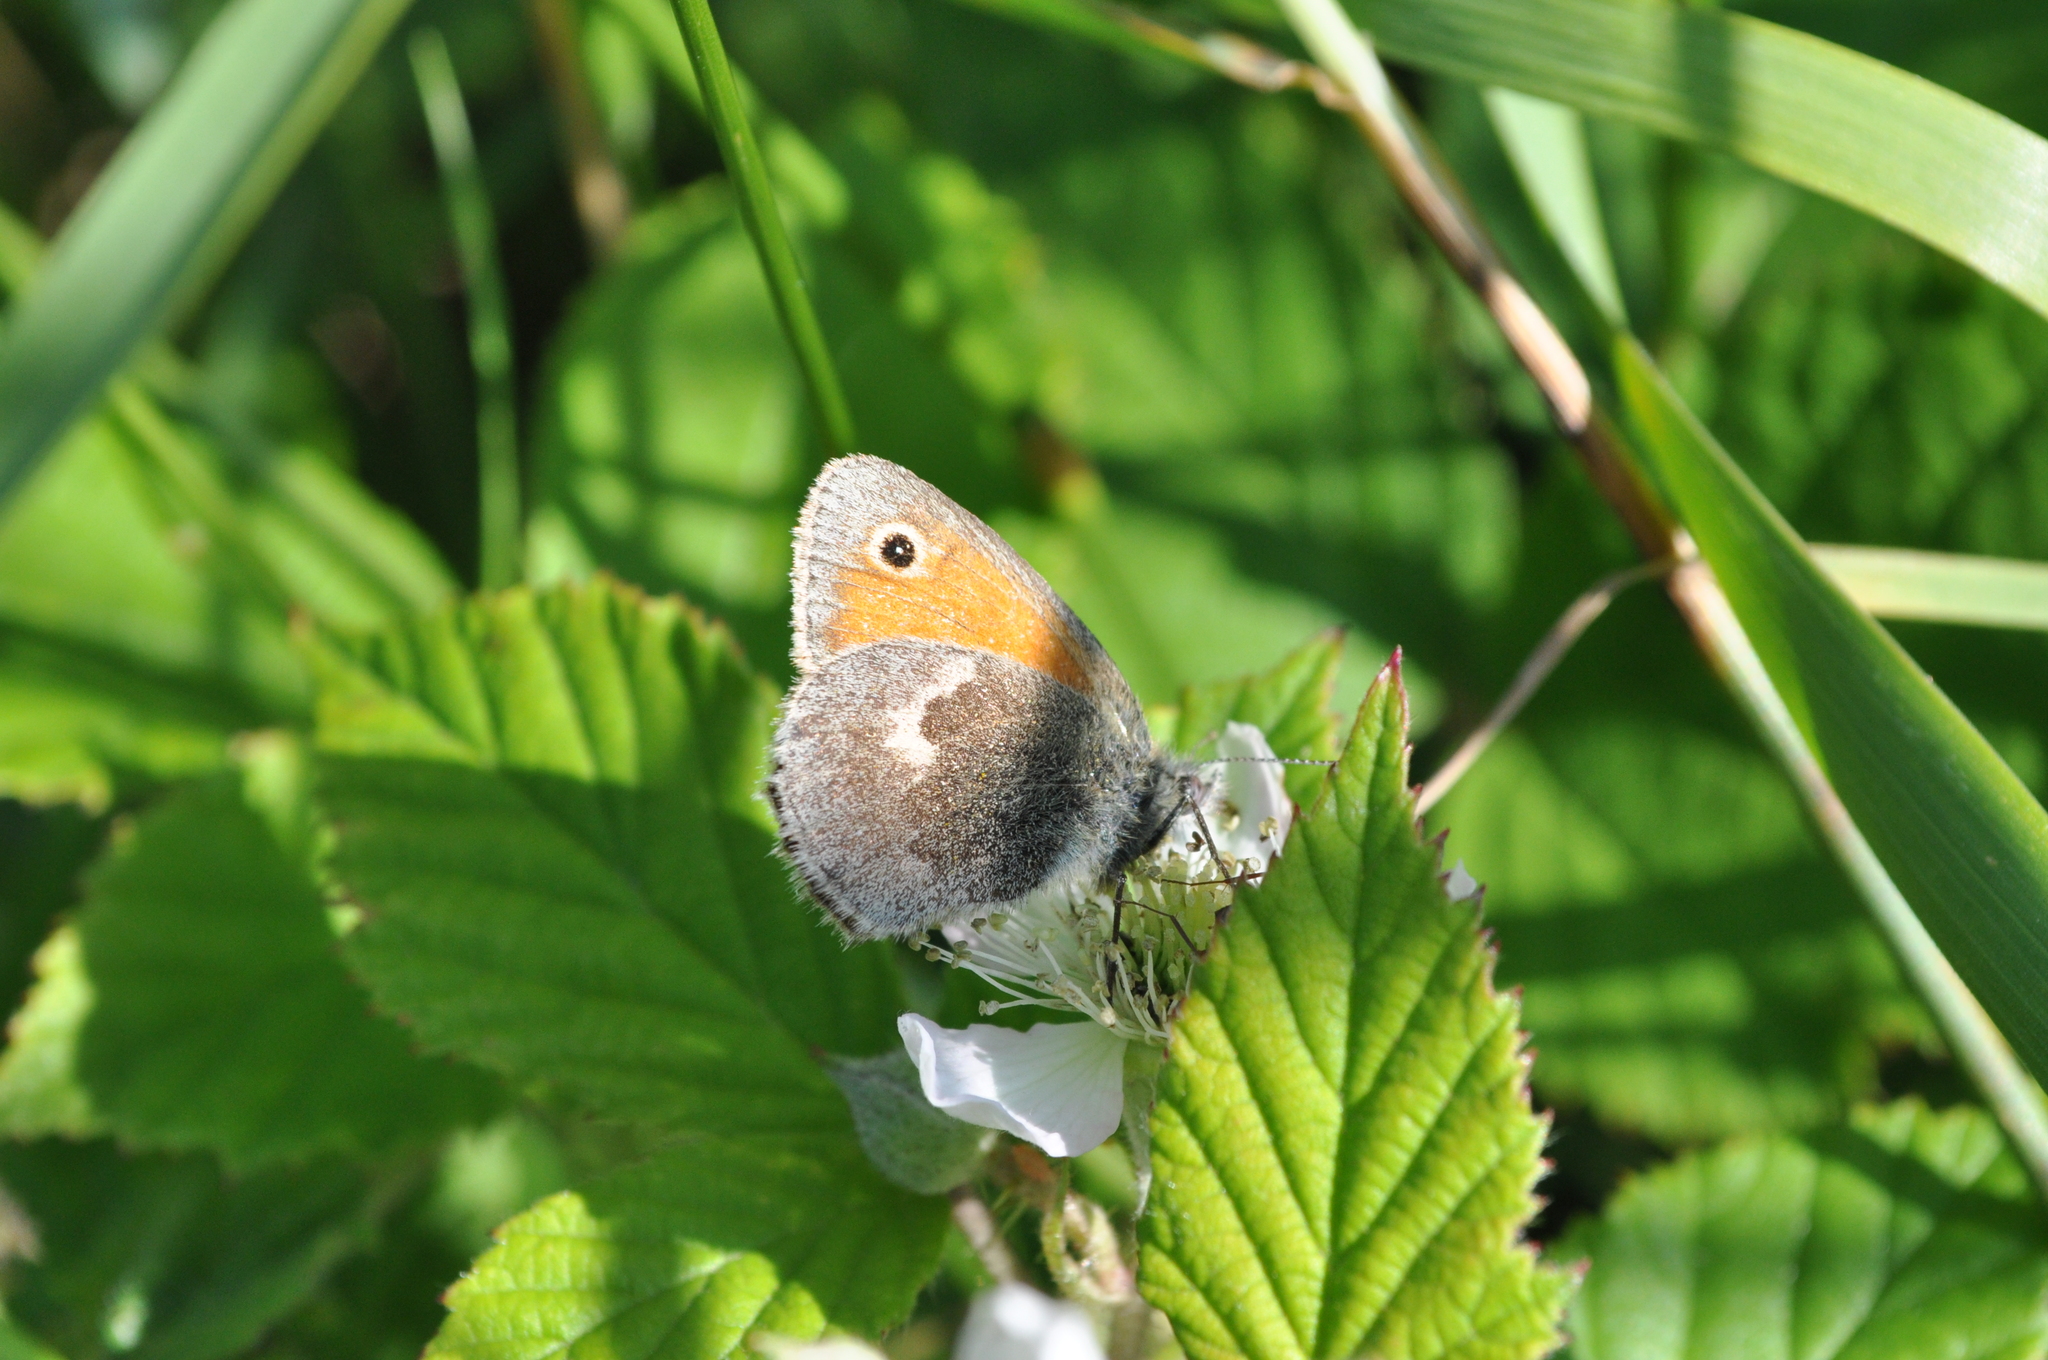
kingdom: Animalia
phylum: Arthropoda
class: Insecta
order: Lepidoptera
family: Nymphalidae
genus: Coenonympha
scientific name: Coenonympha pamphilus
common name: Small heath
